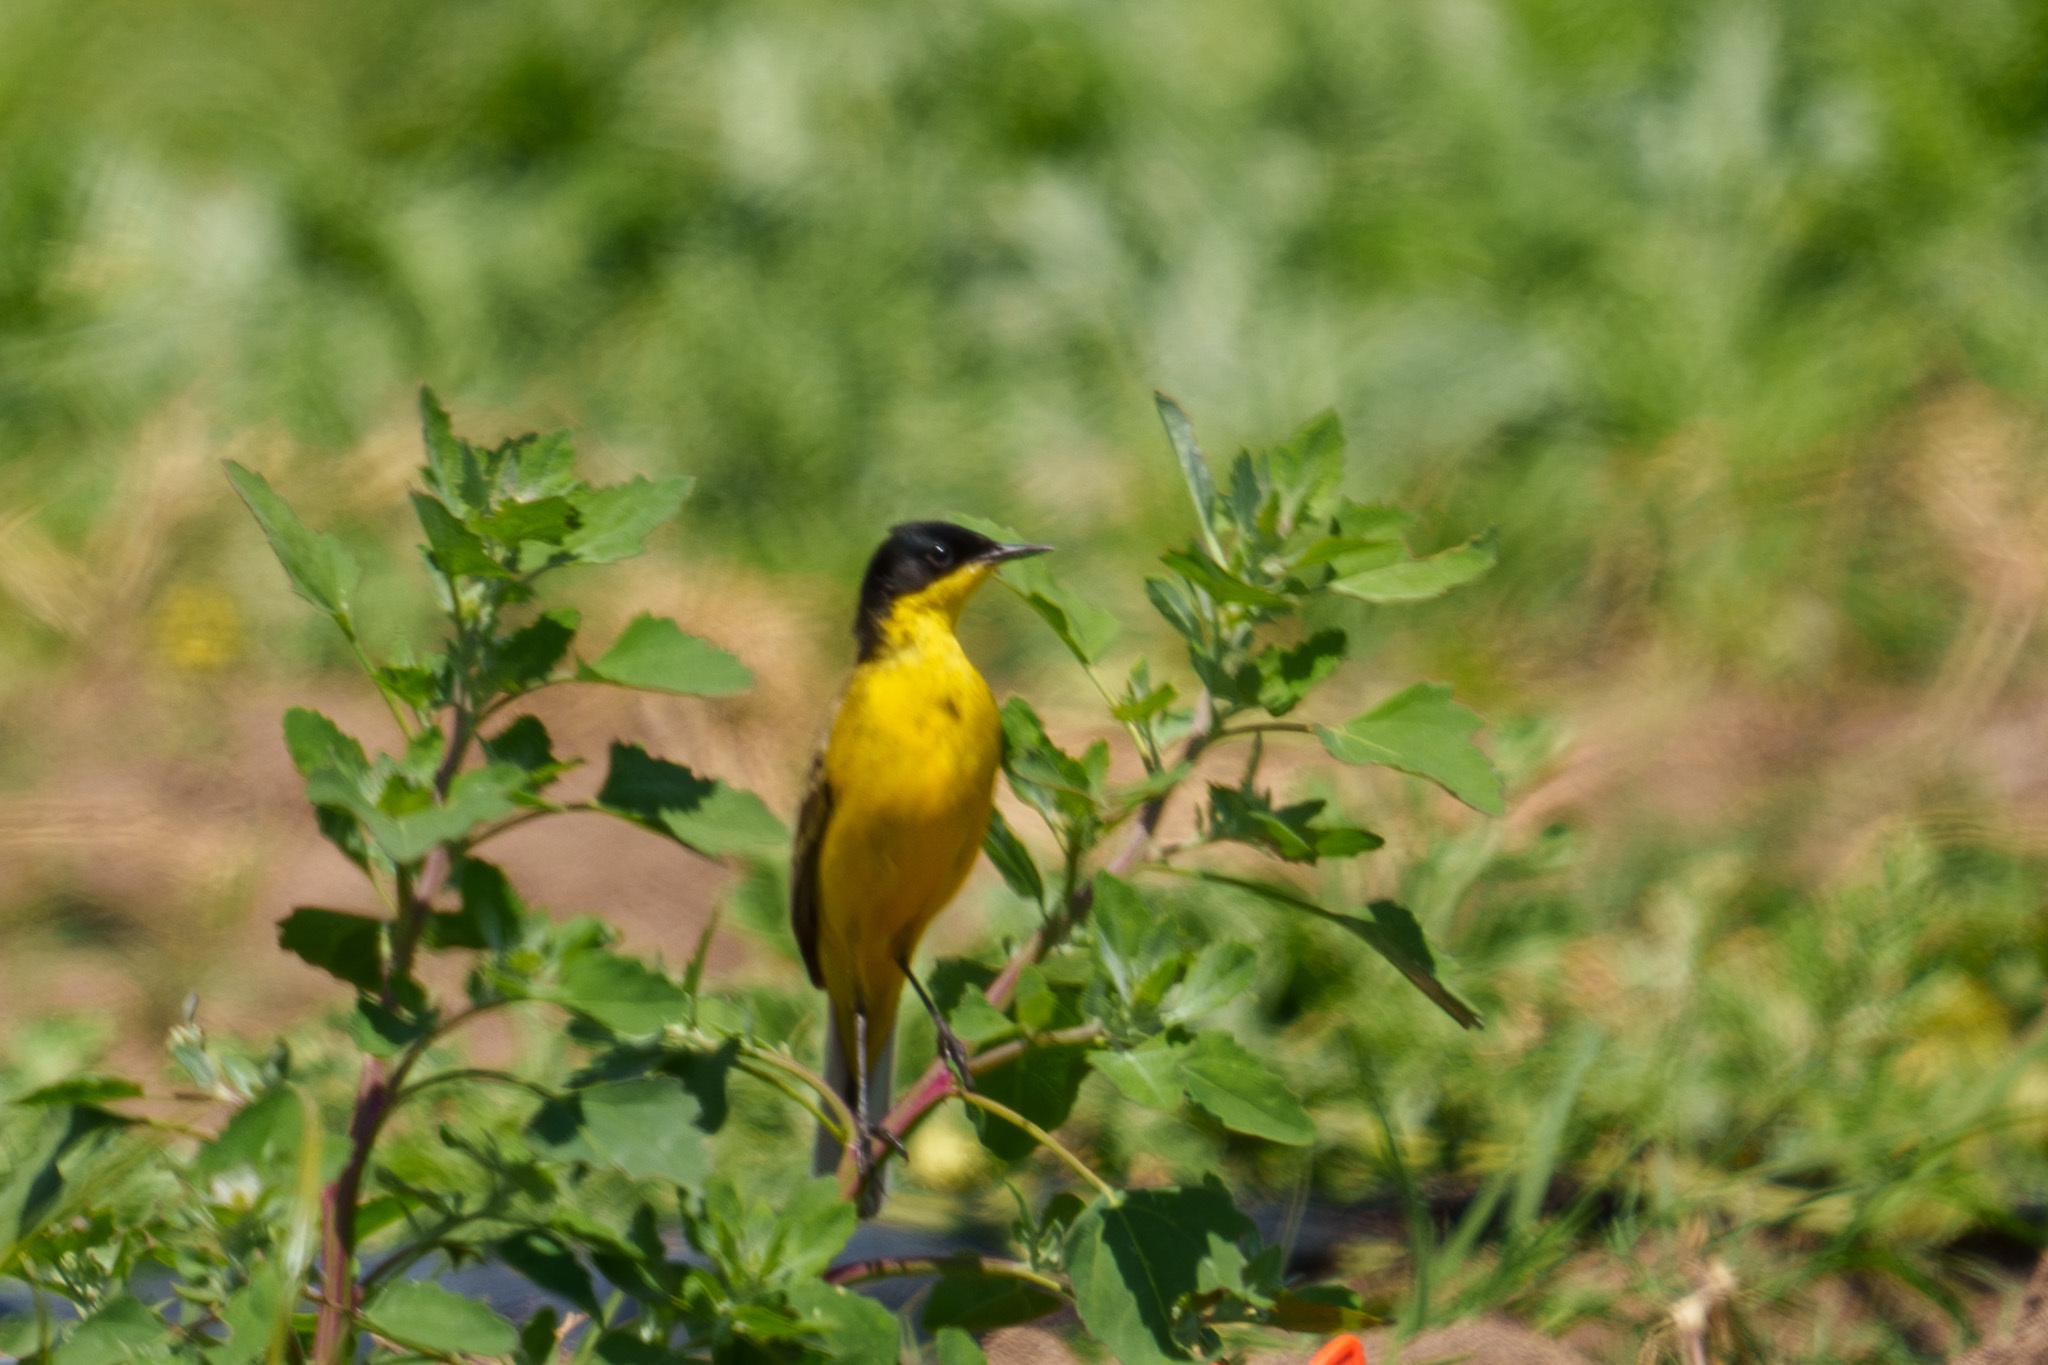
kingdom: Animalia
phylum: Chordata
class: Aves
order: Passeriformes
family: Motacillidae
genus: Motacilla
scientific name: Motacilla flava
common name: Western yellow wagtail
